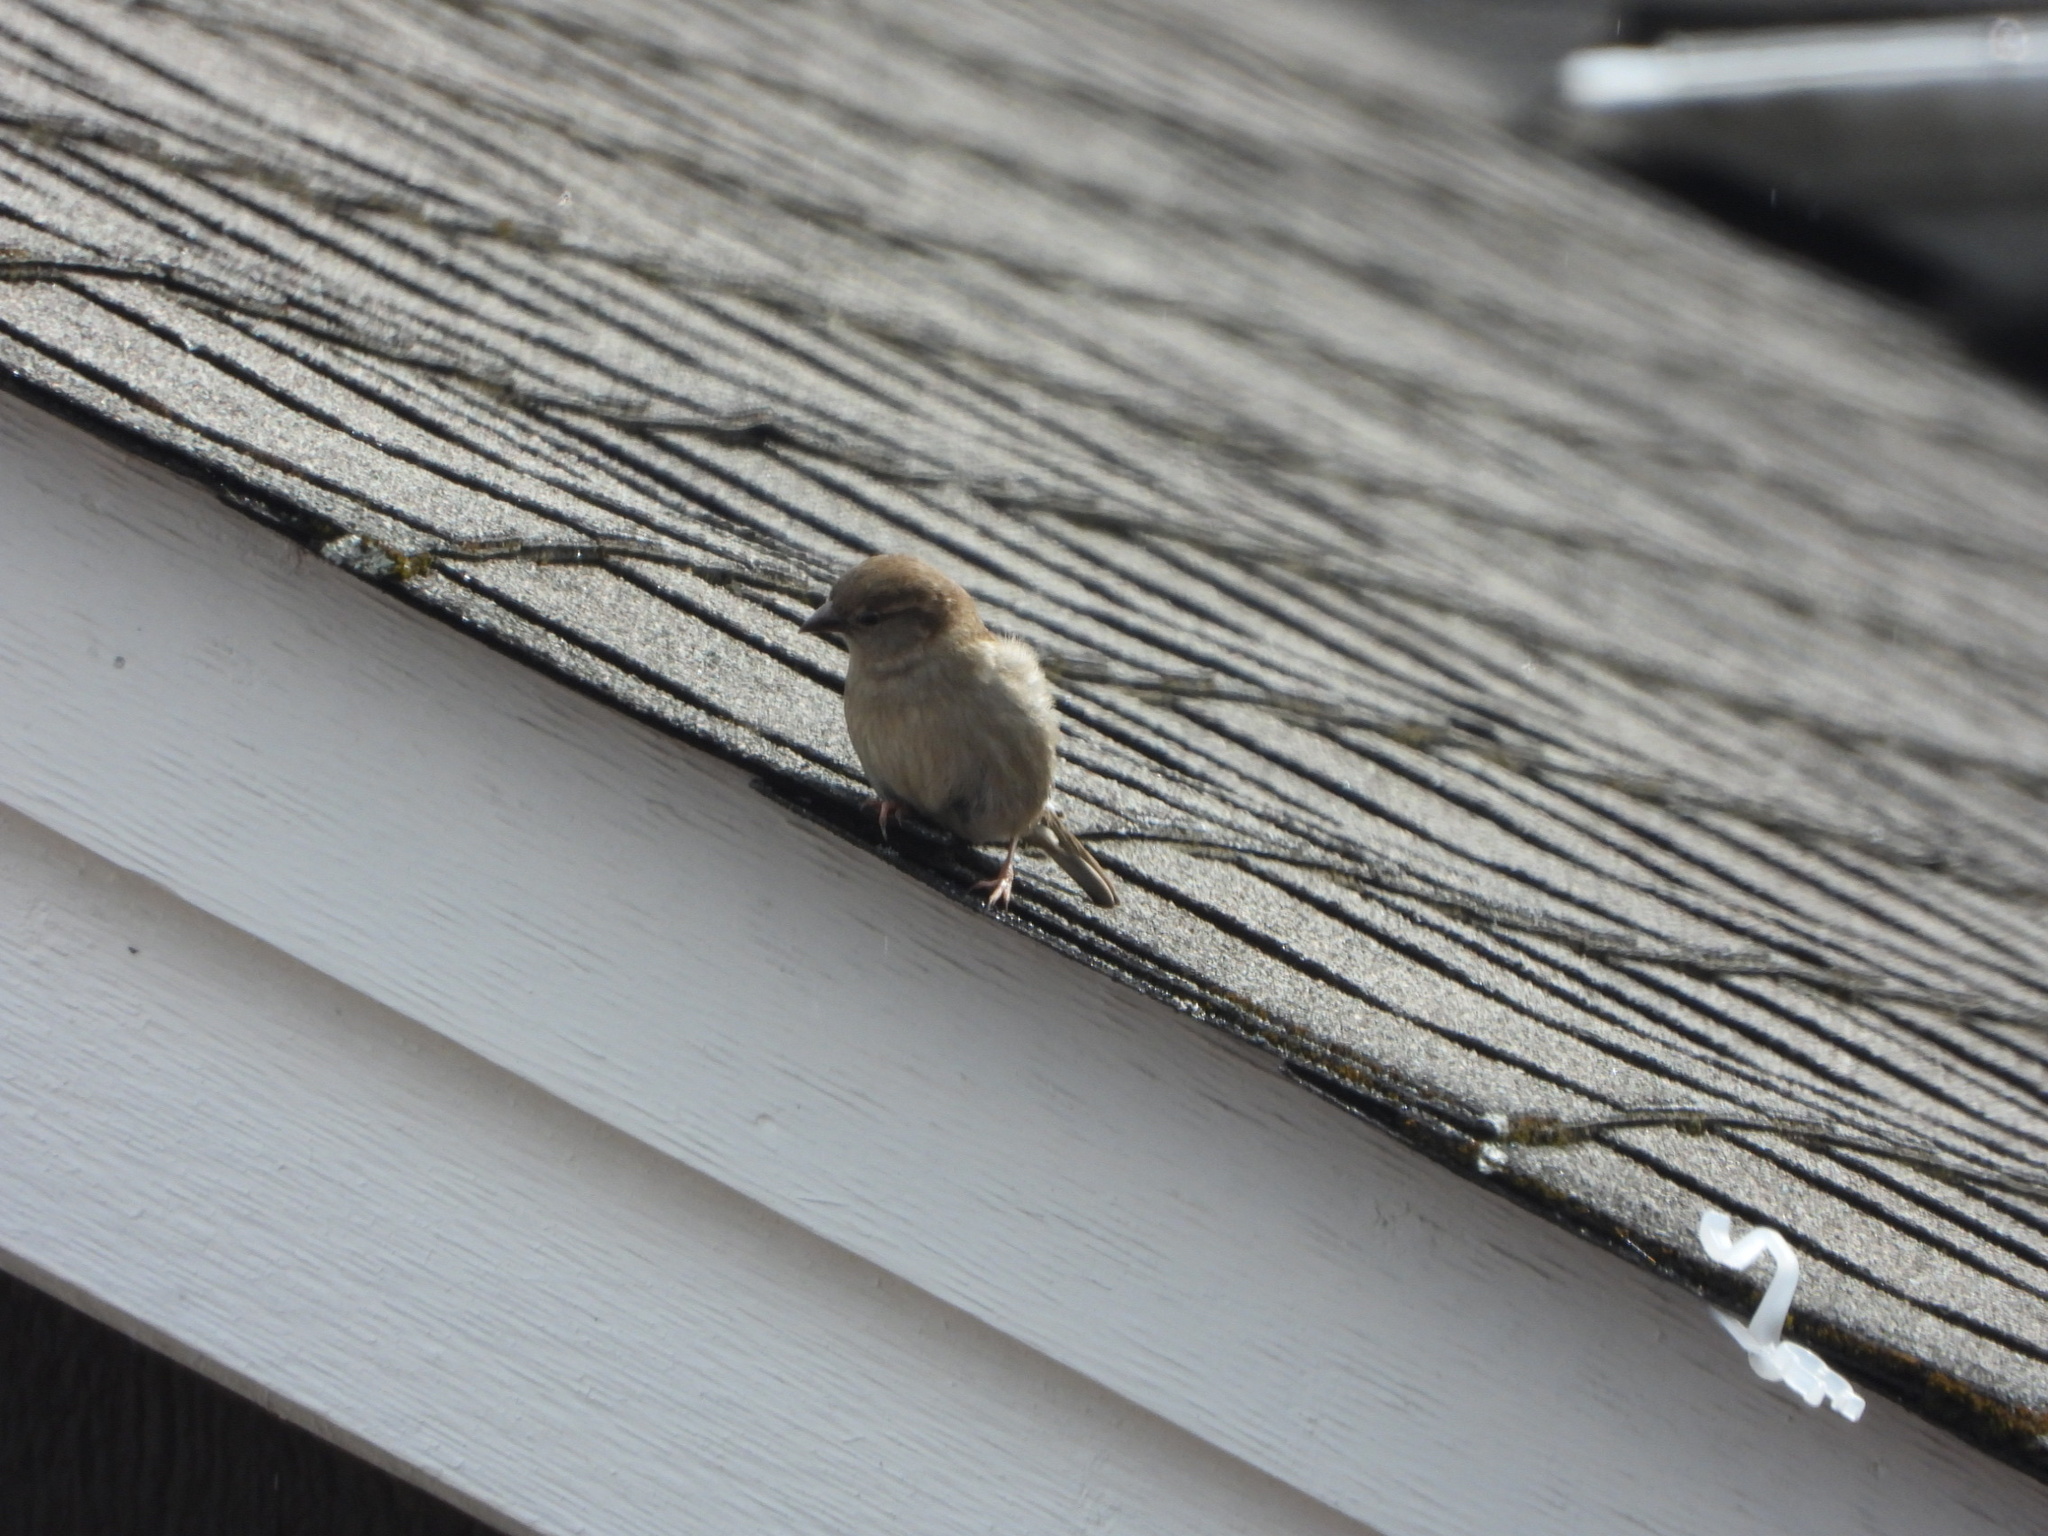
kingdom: Animalia
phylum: Chordata
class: Aves
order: Passeriformes
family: Passeridae
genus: Passer
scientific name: Passer domesticus
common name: House sparrow
